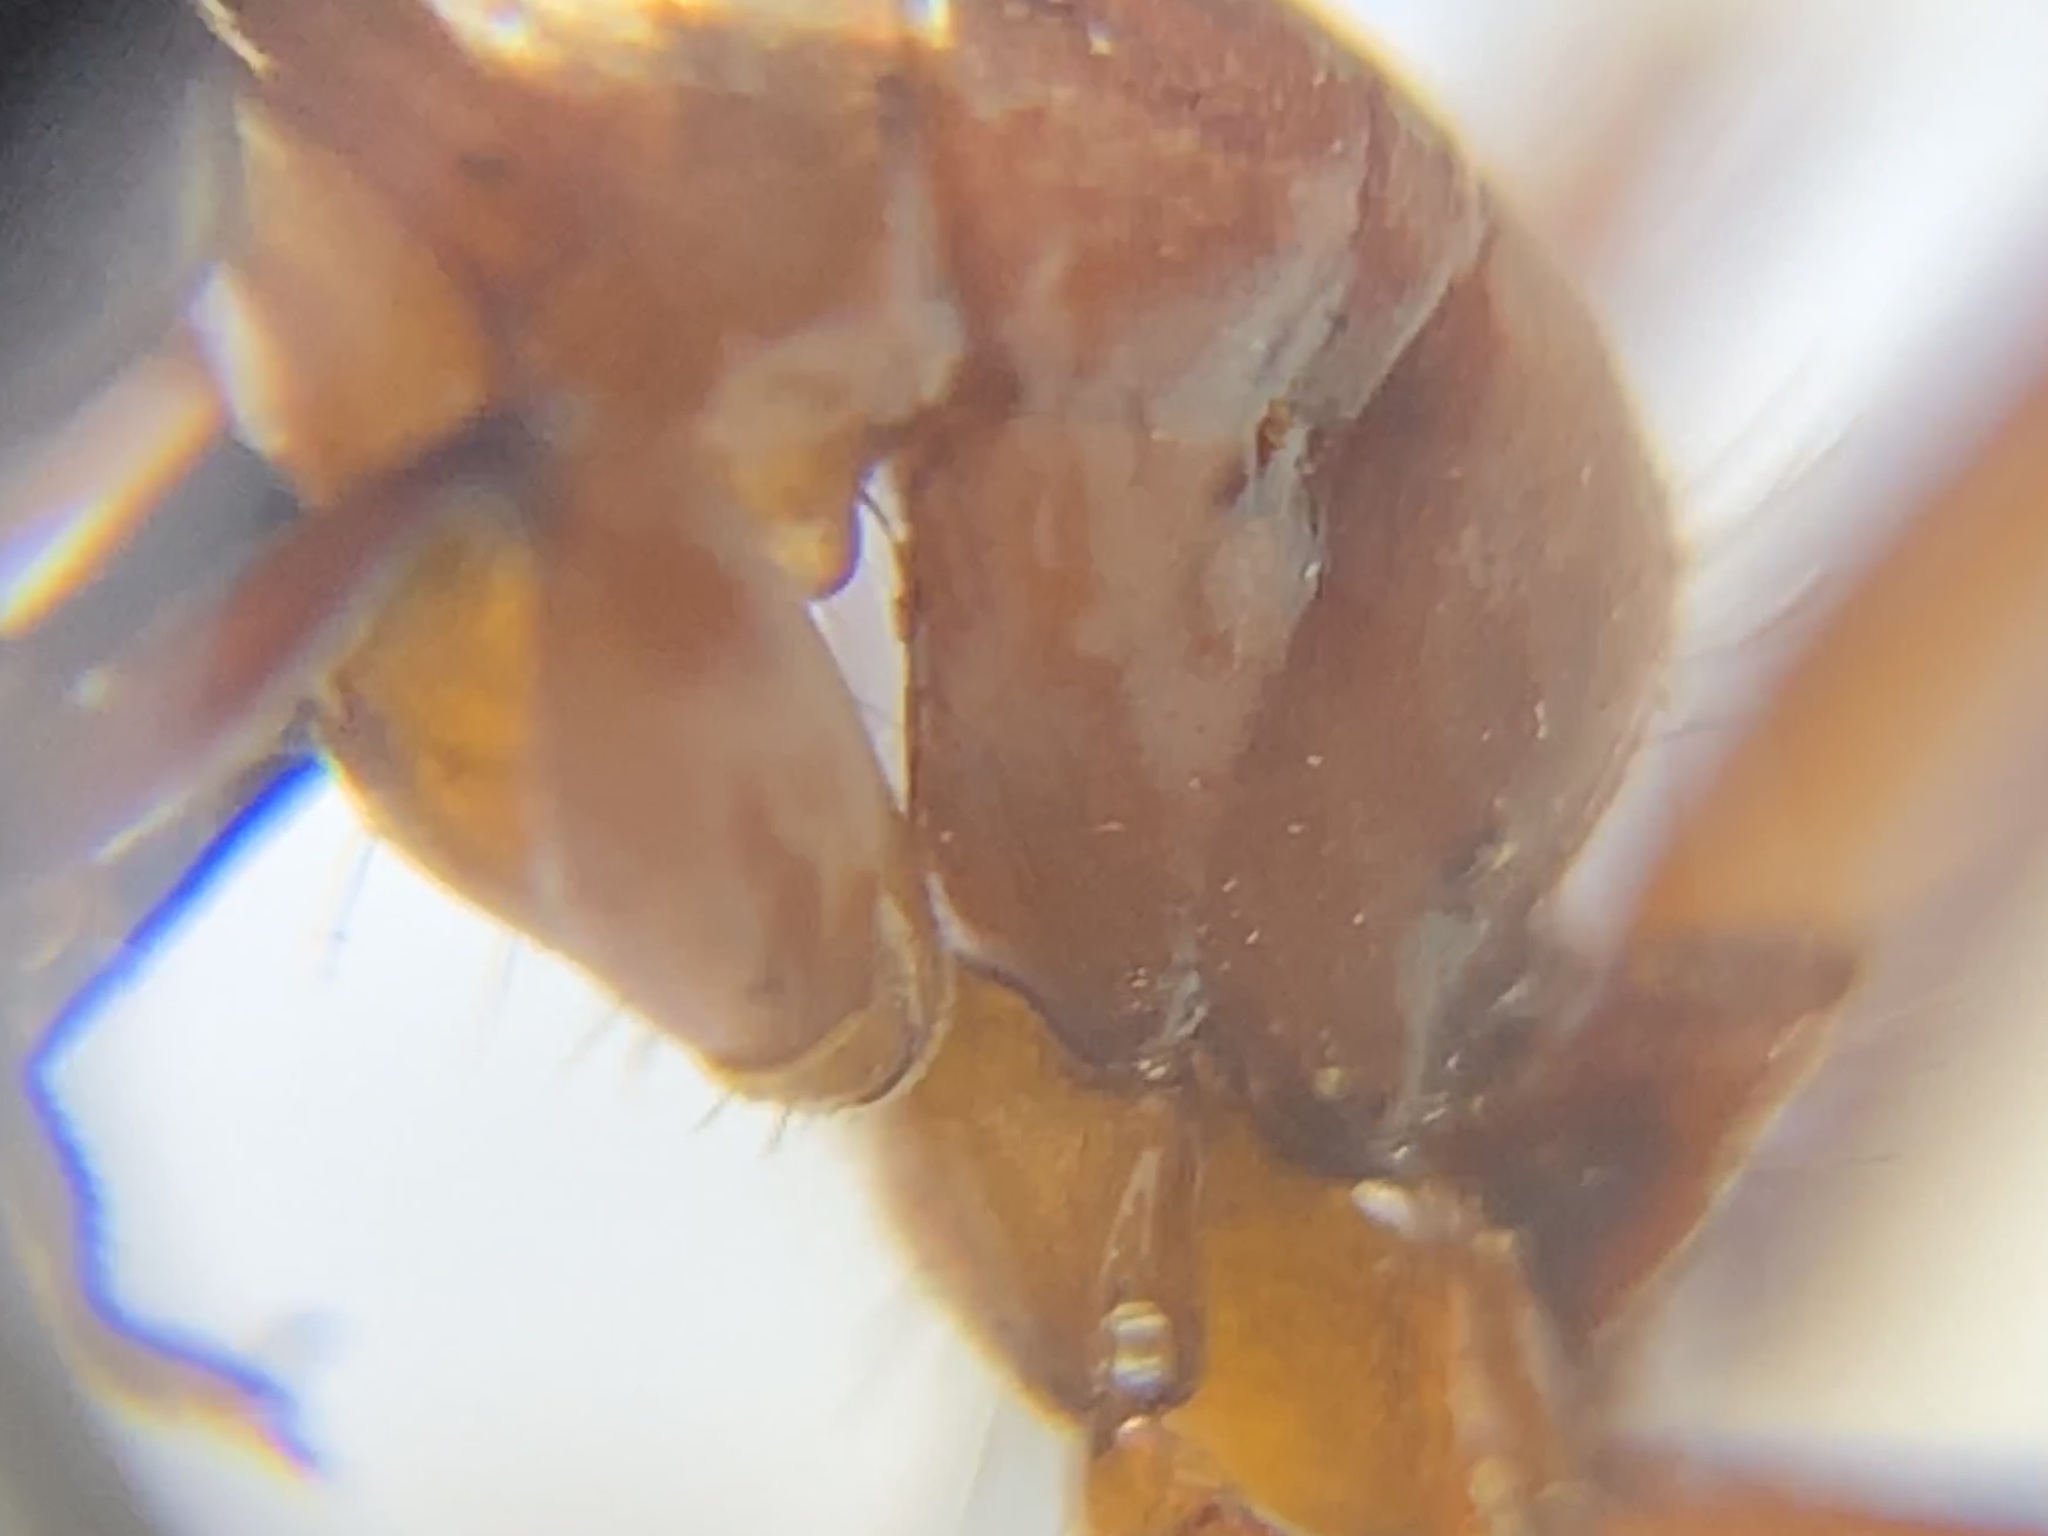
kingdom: Animalia
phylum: Arthropoda
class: Insecta
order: Hymenoptera
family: Formicidae
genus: Camponotus
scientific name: Camponotus texanus
